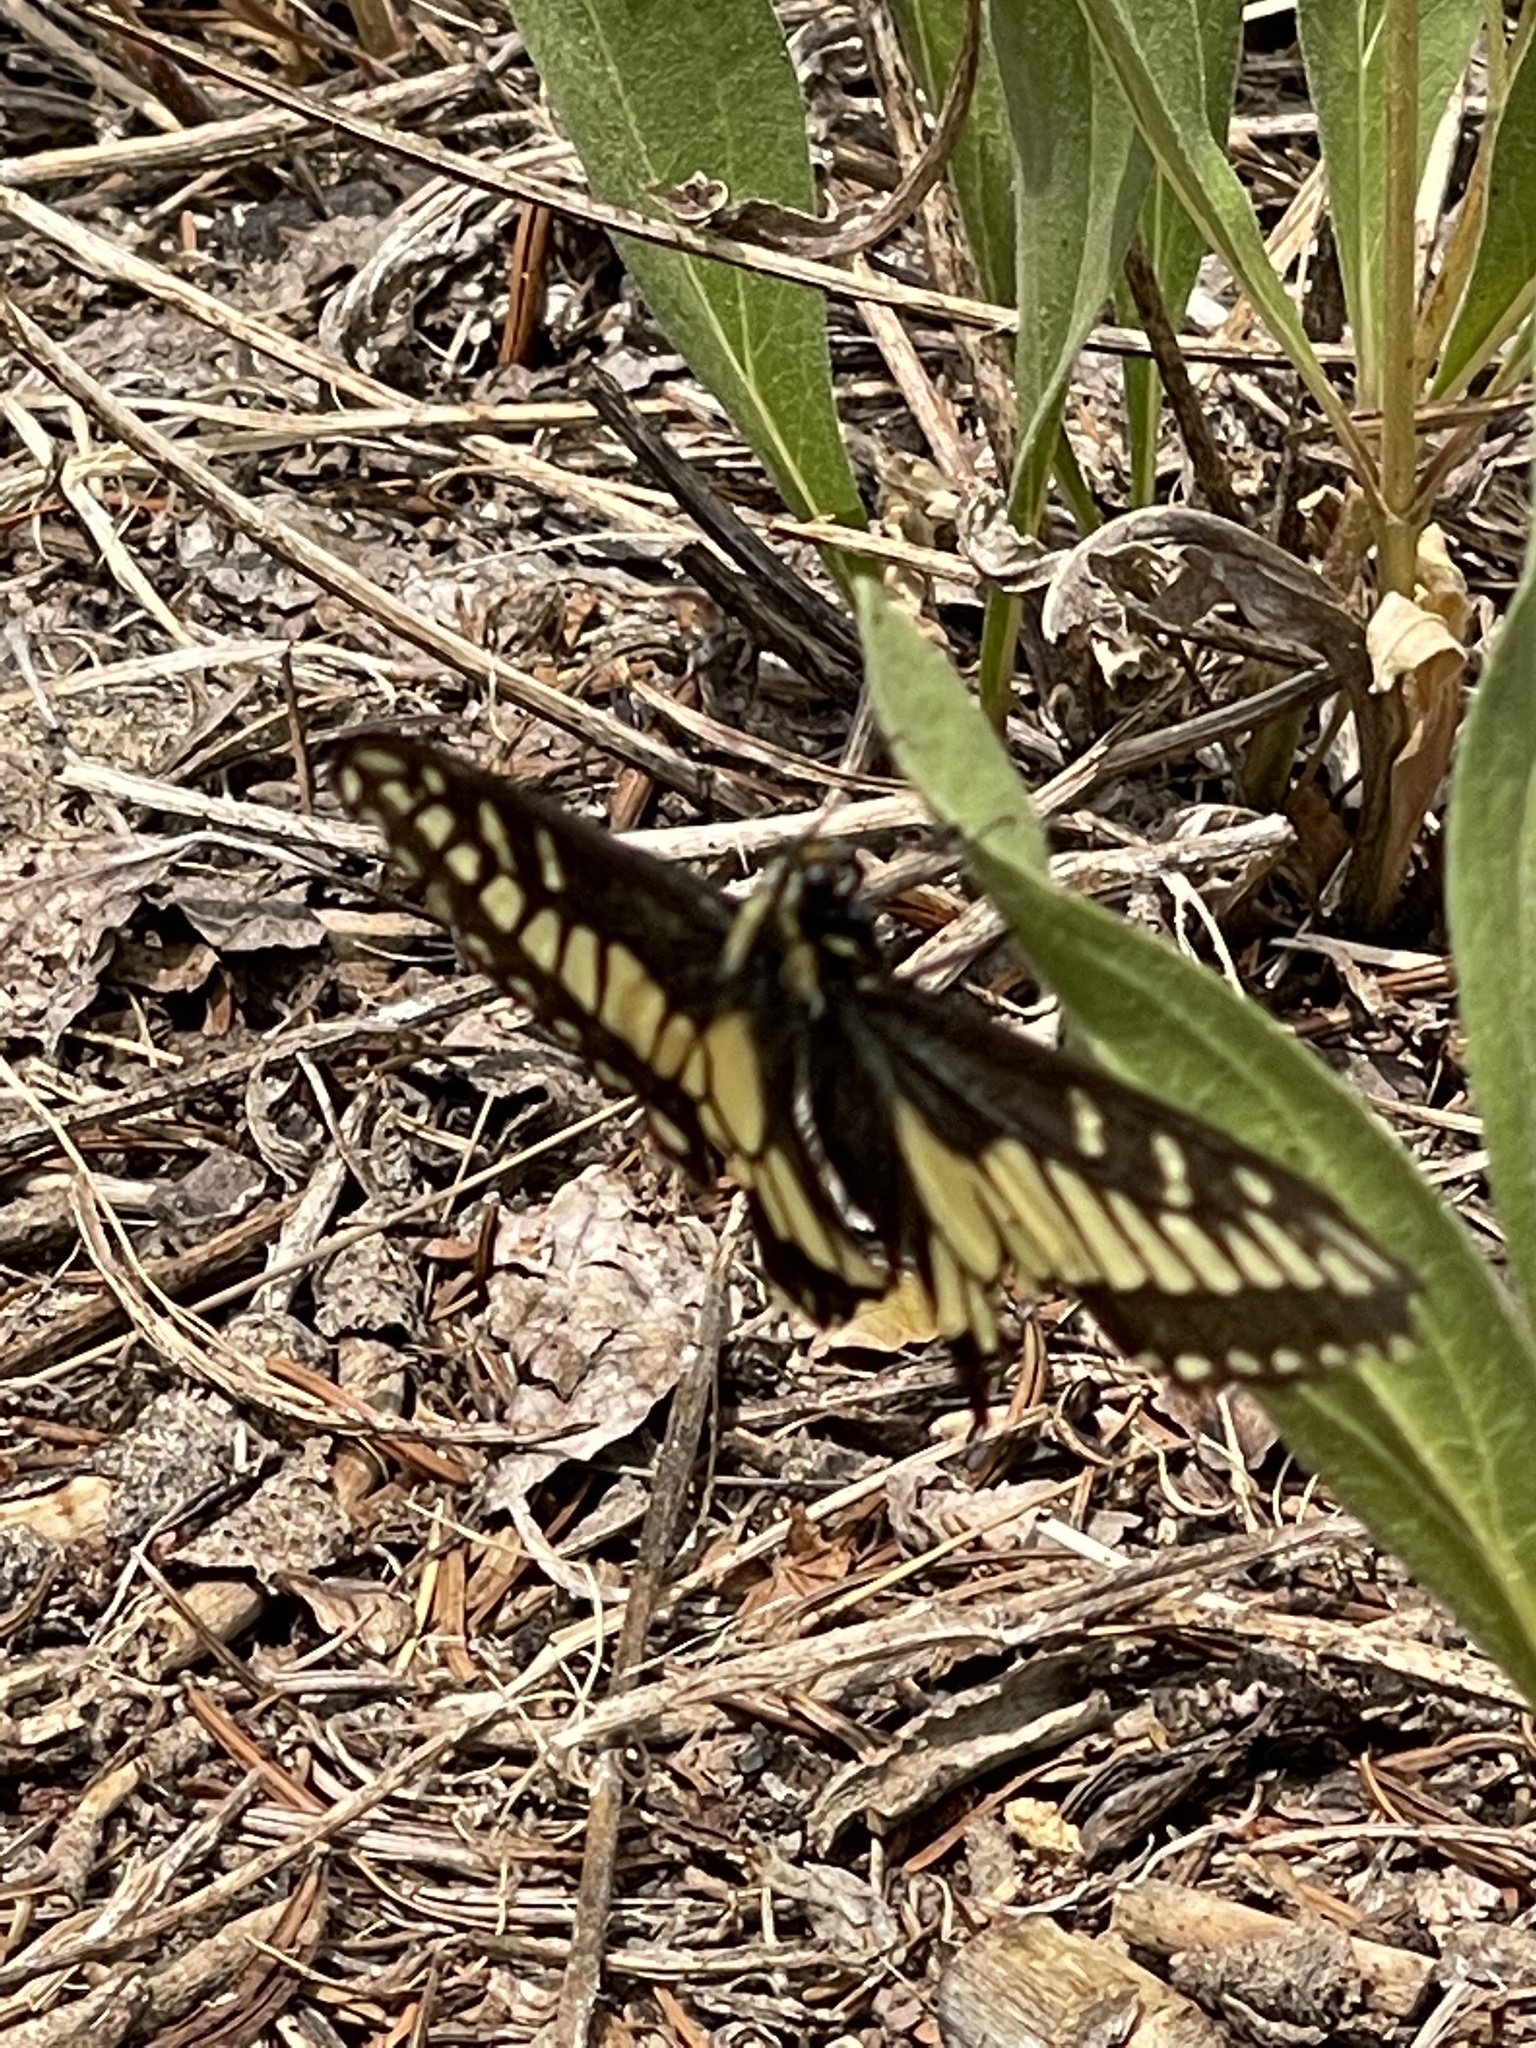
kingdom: Animalia
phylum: Arthropoda
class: Insecta
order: Lepidoptera
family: Papilionidae
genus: Papilio
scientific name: Papilio zelicaon
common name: Anise swallowtail
